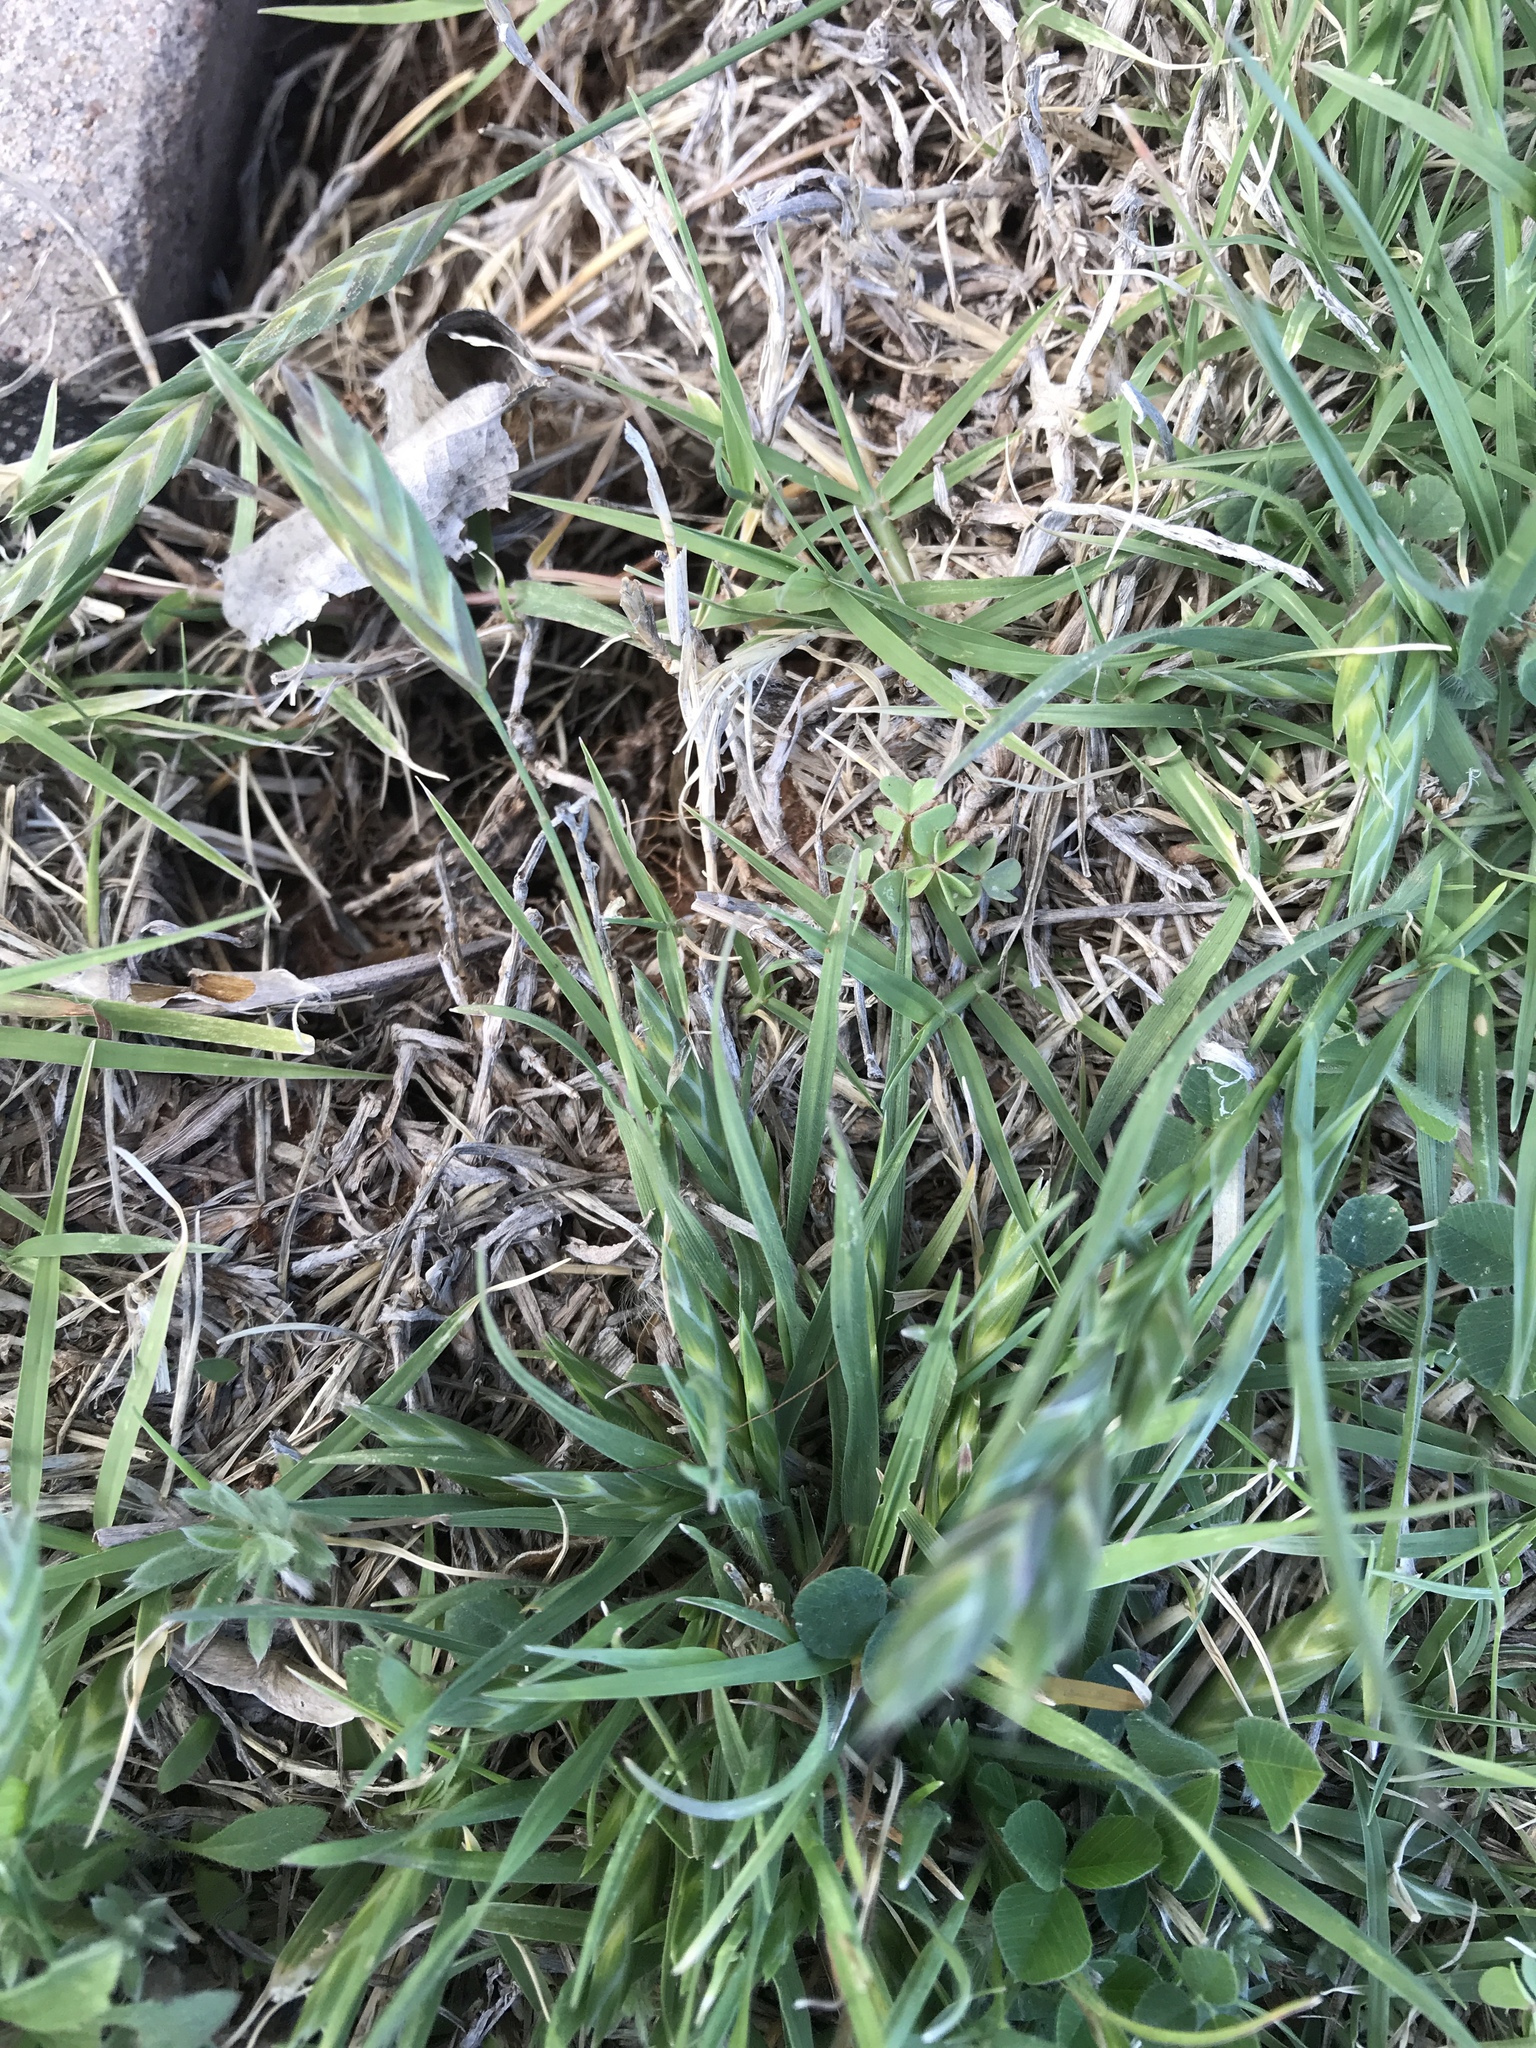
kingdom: Plantae
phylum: Tracheophyta
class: Liliopsida
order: Poales
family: Poaceae
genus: Bromus
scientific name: Bromus catharticus
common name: Rescuegrass
